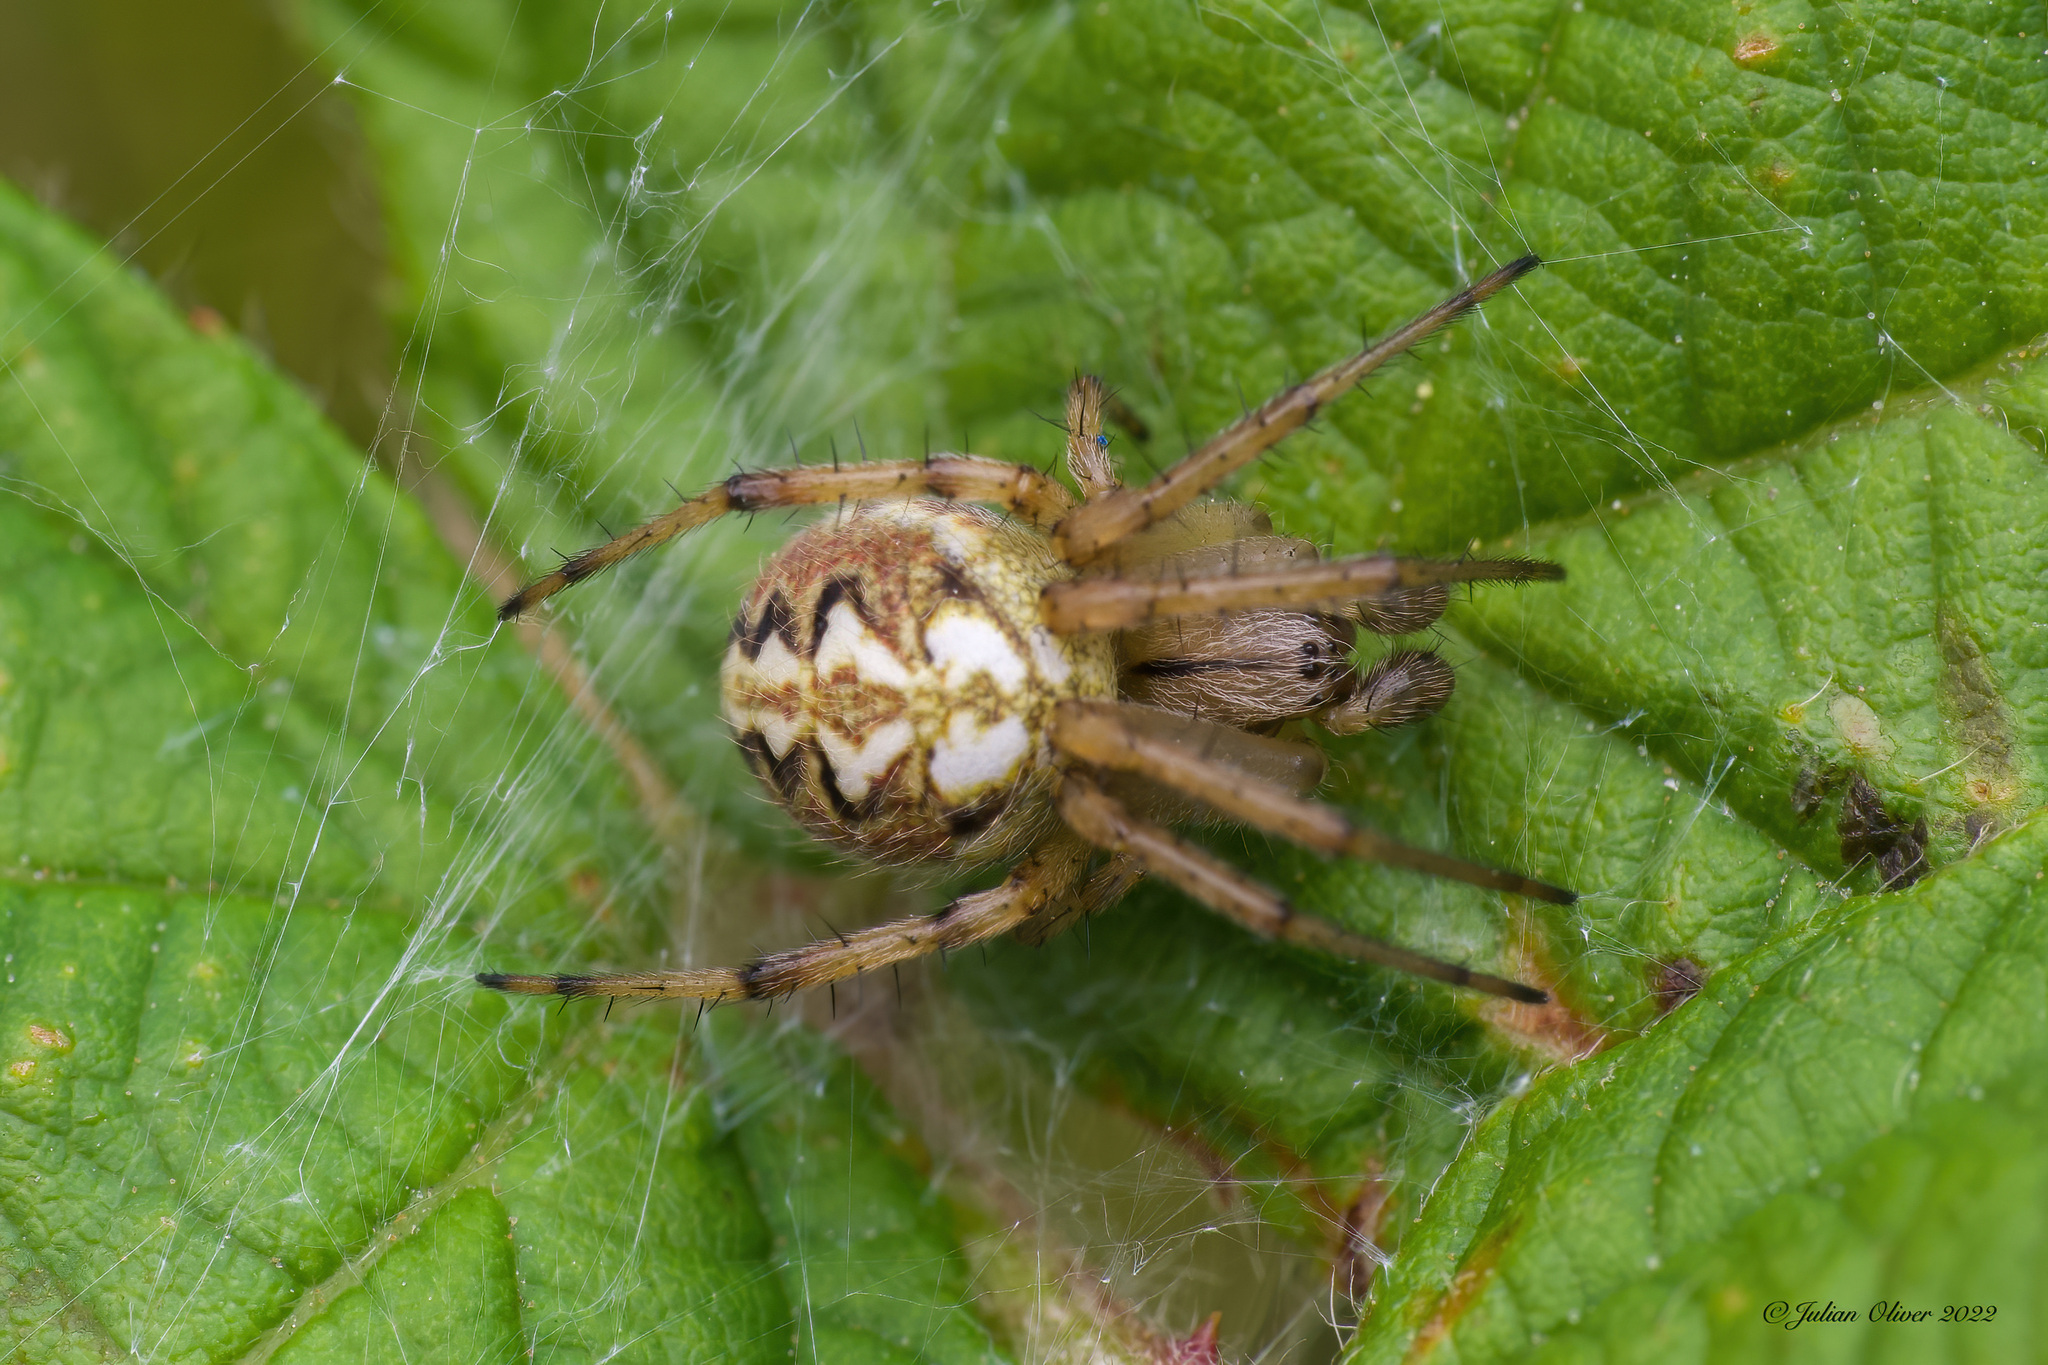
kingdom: Animalia
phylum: Arthropoda
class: Arachnida
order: Araneae
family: Araneidae
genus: Neoscona
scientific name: Neoscona adianta
